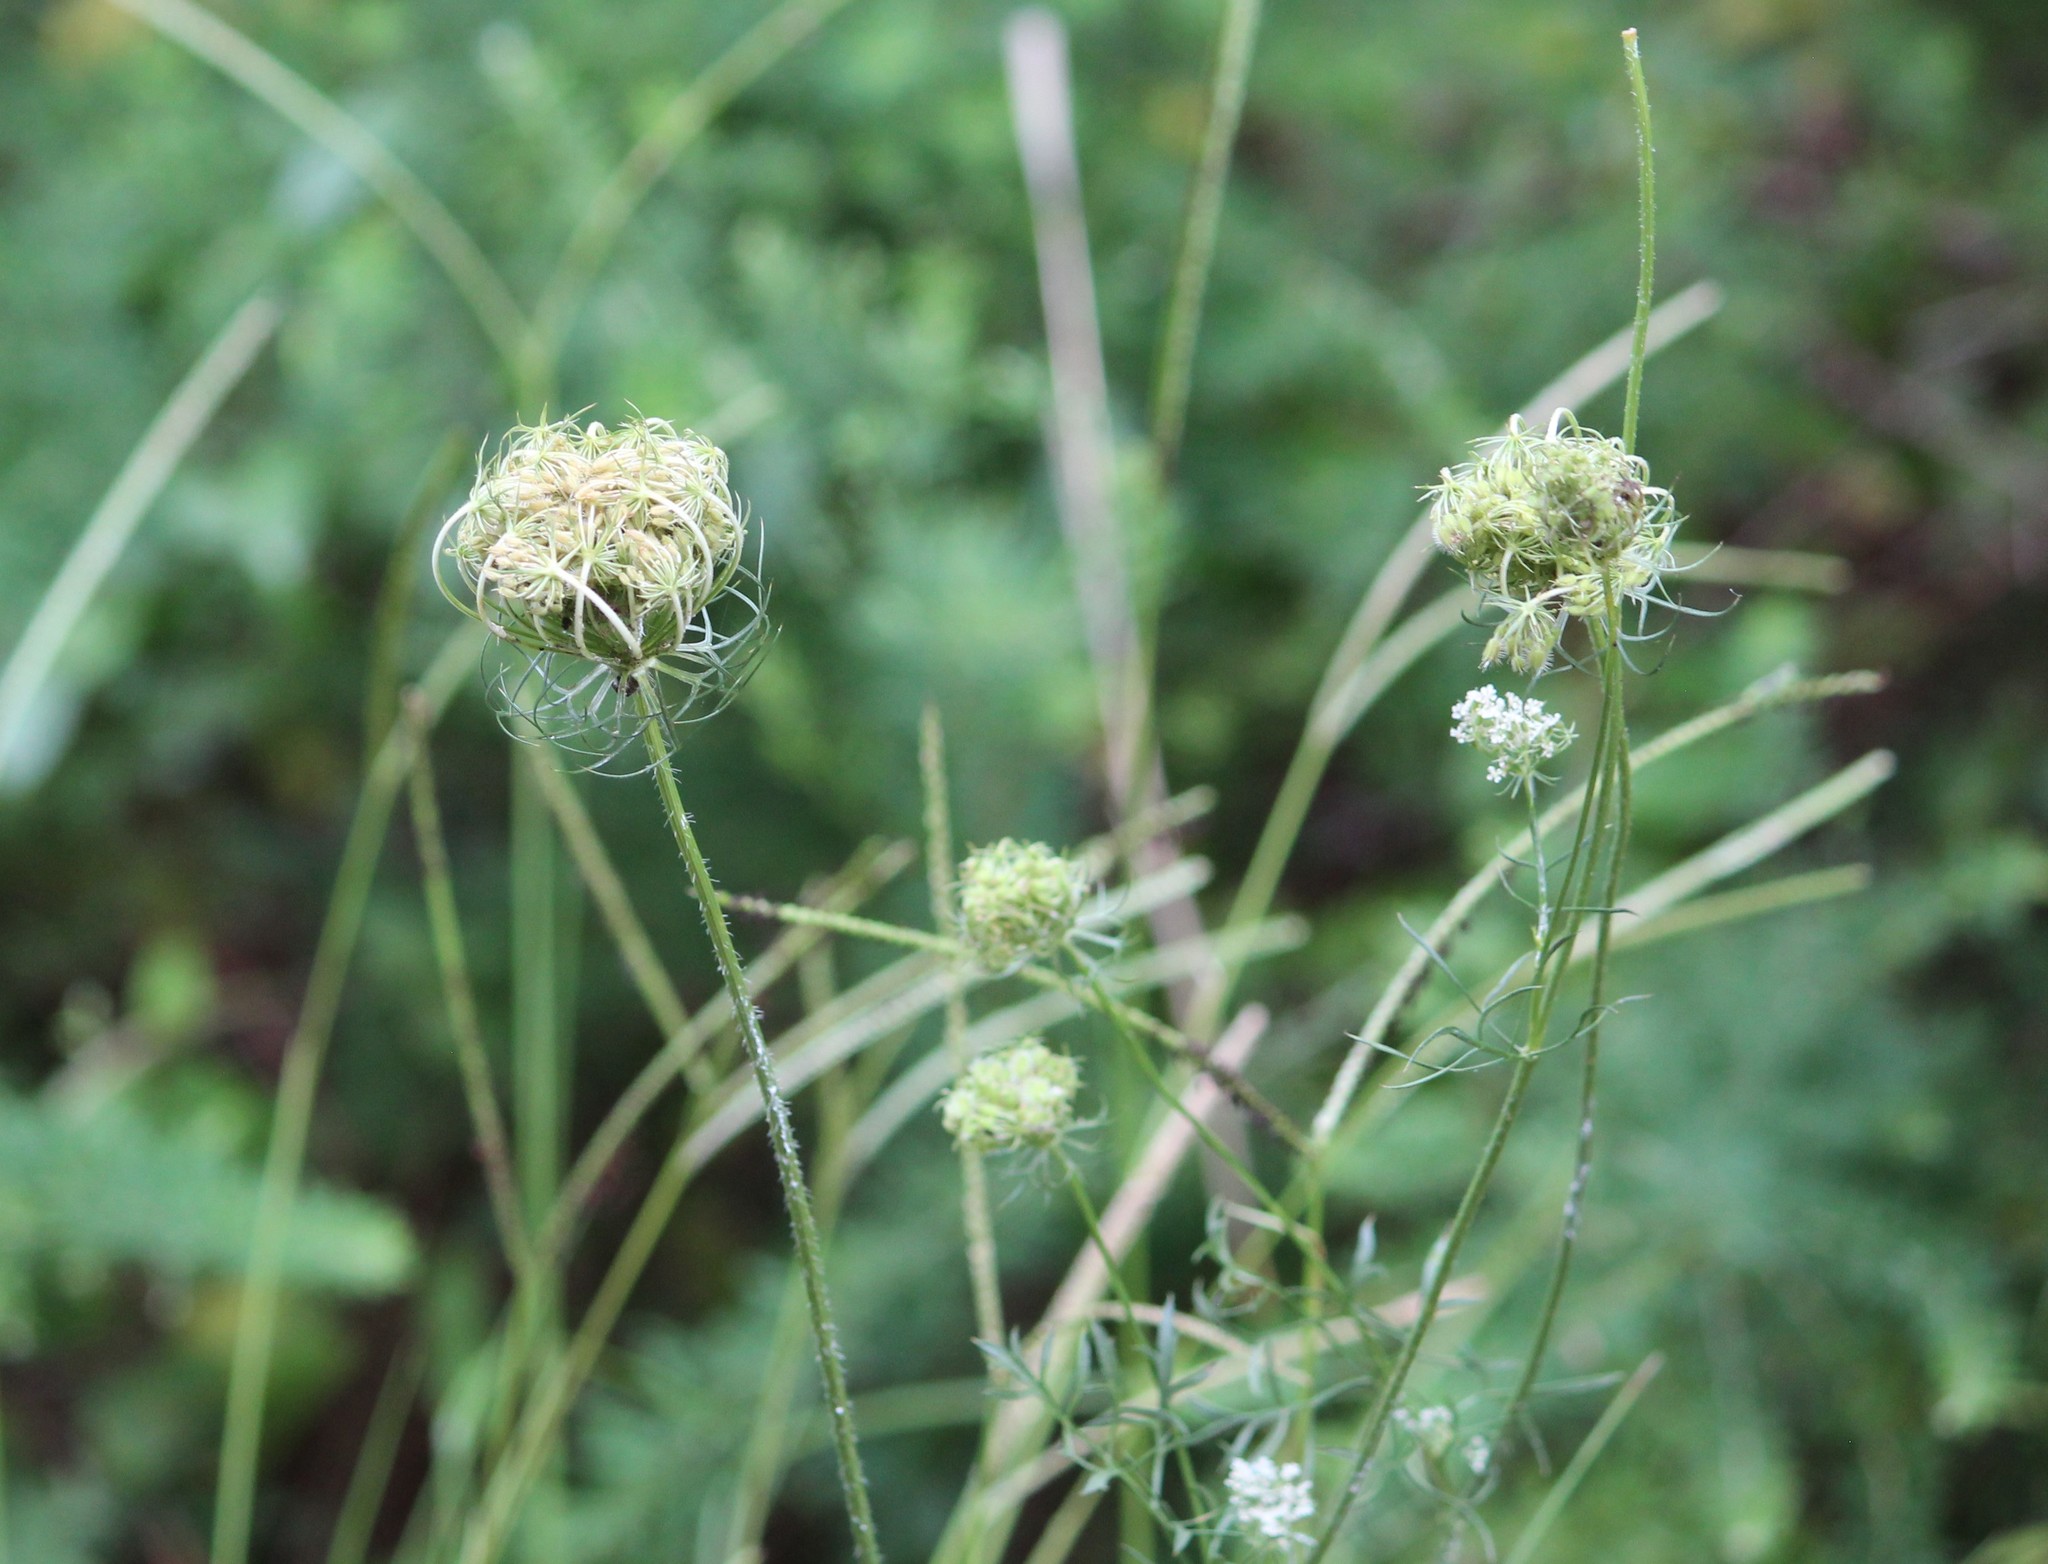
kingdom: Plantae
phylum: Tracheophyta
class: Magnoliopsida
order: Apiales
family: Apiaceae
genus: Daucus
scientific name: Daucus carota
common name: Wild carrot
